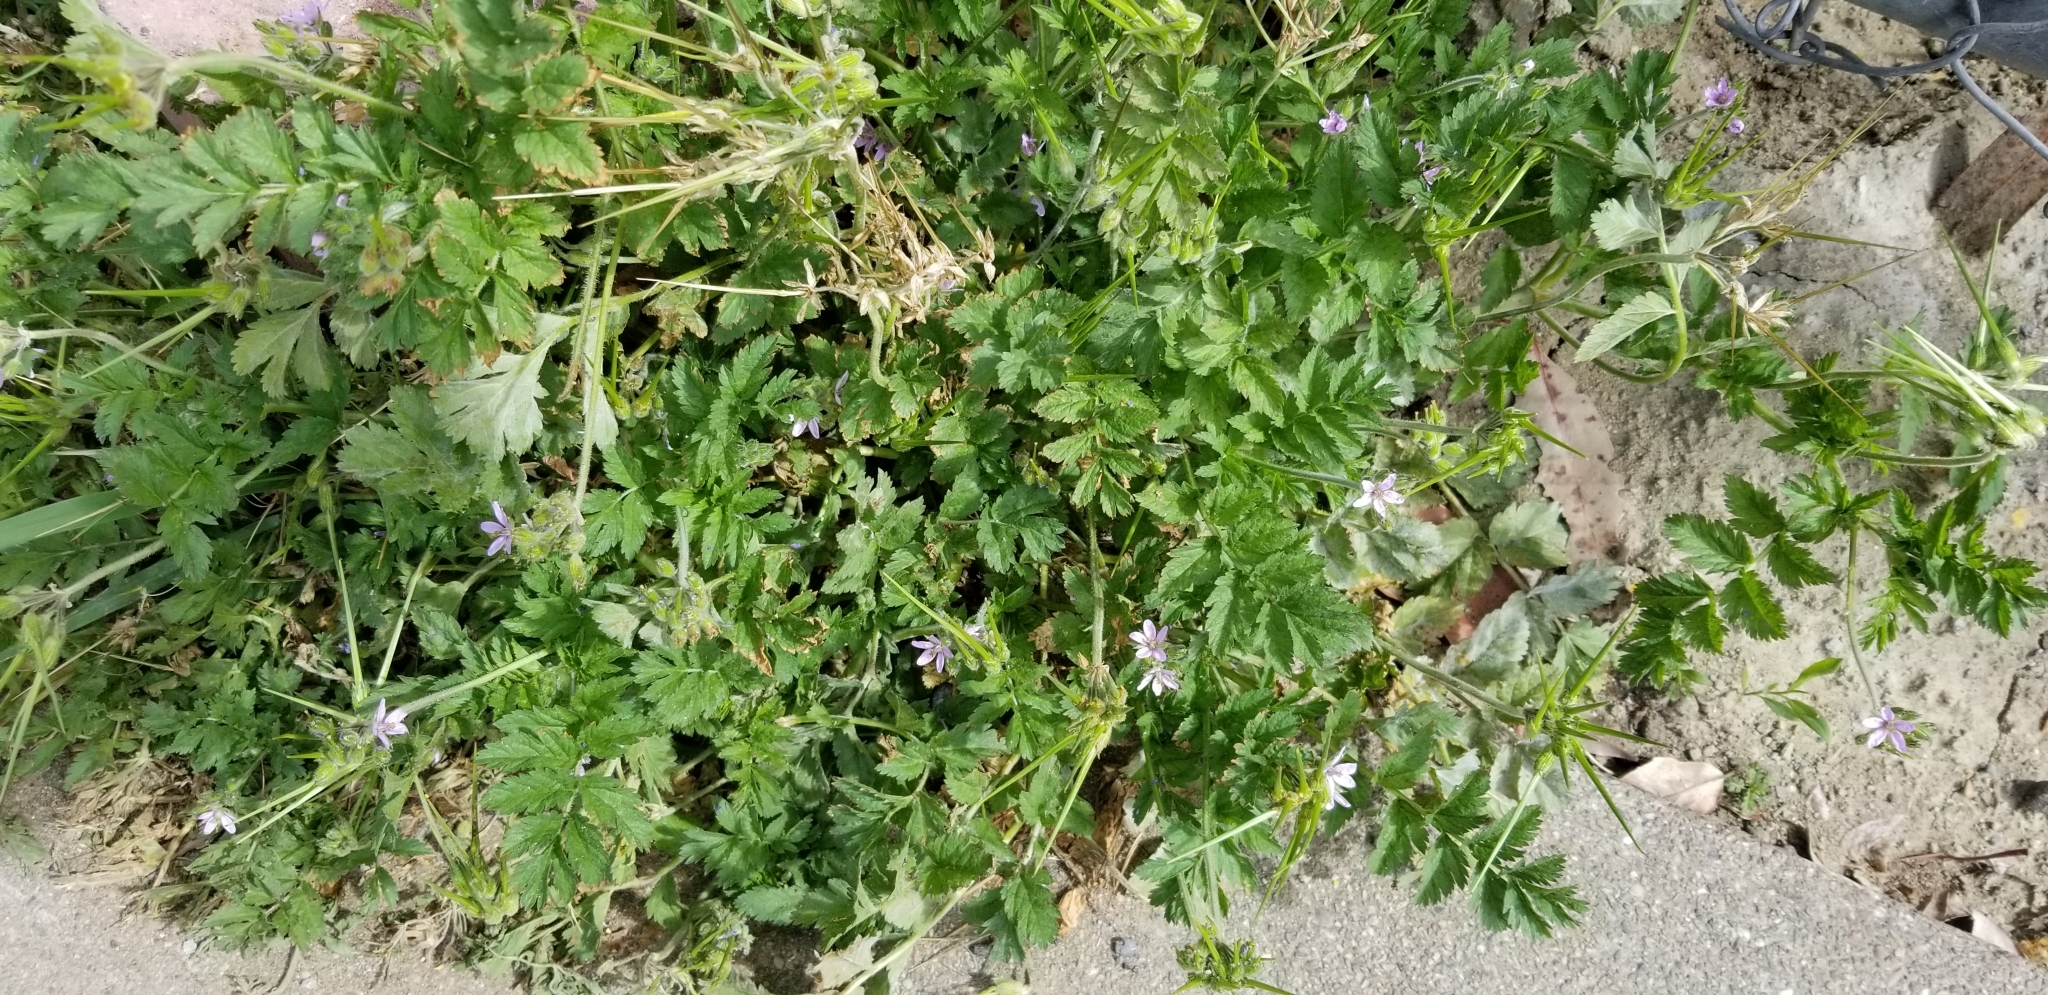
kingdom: Plantae
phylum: Tracheophyta
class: Magnoliopsida
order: Geraniales
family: Geraniaceae
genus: Erodium
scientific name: Erodium moschatum
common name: Musk stork's-bill
